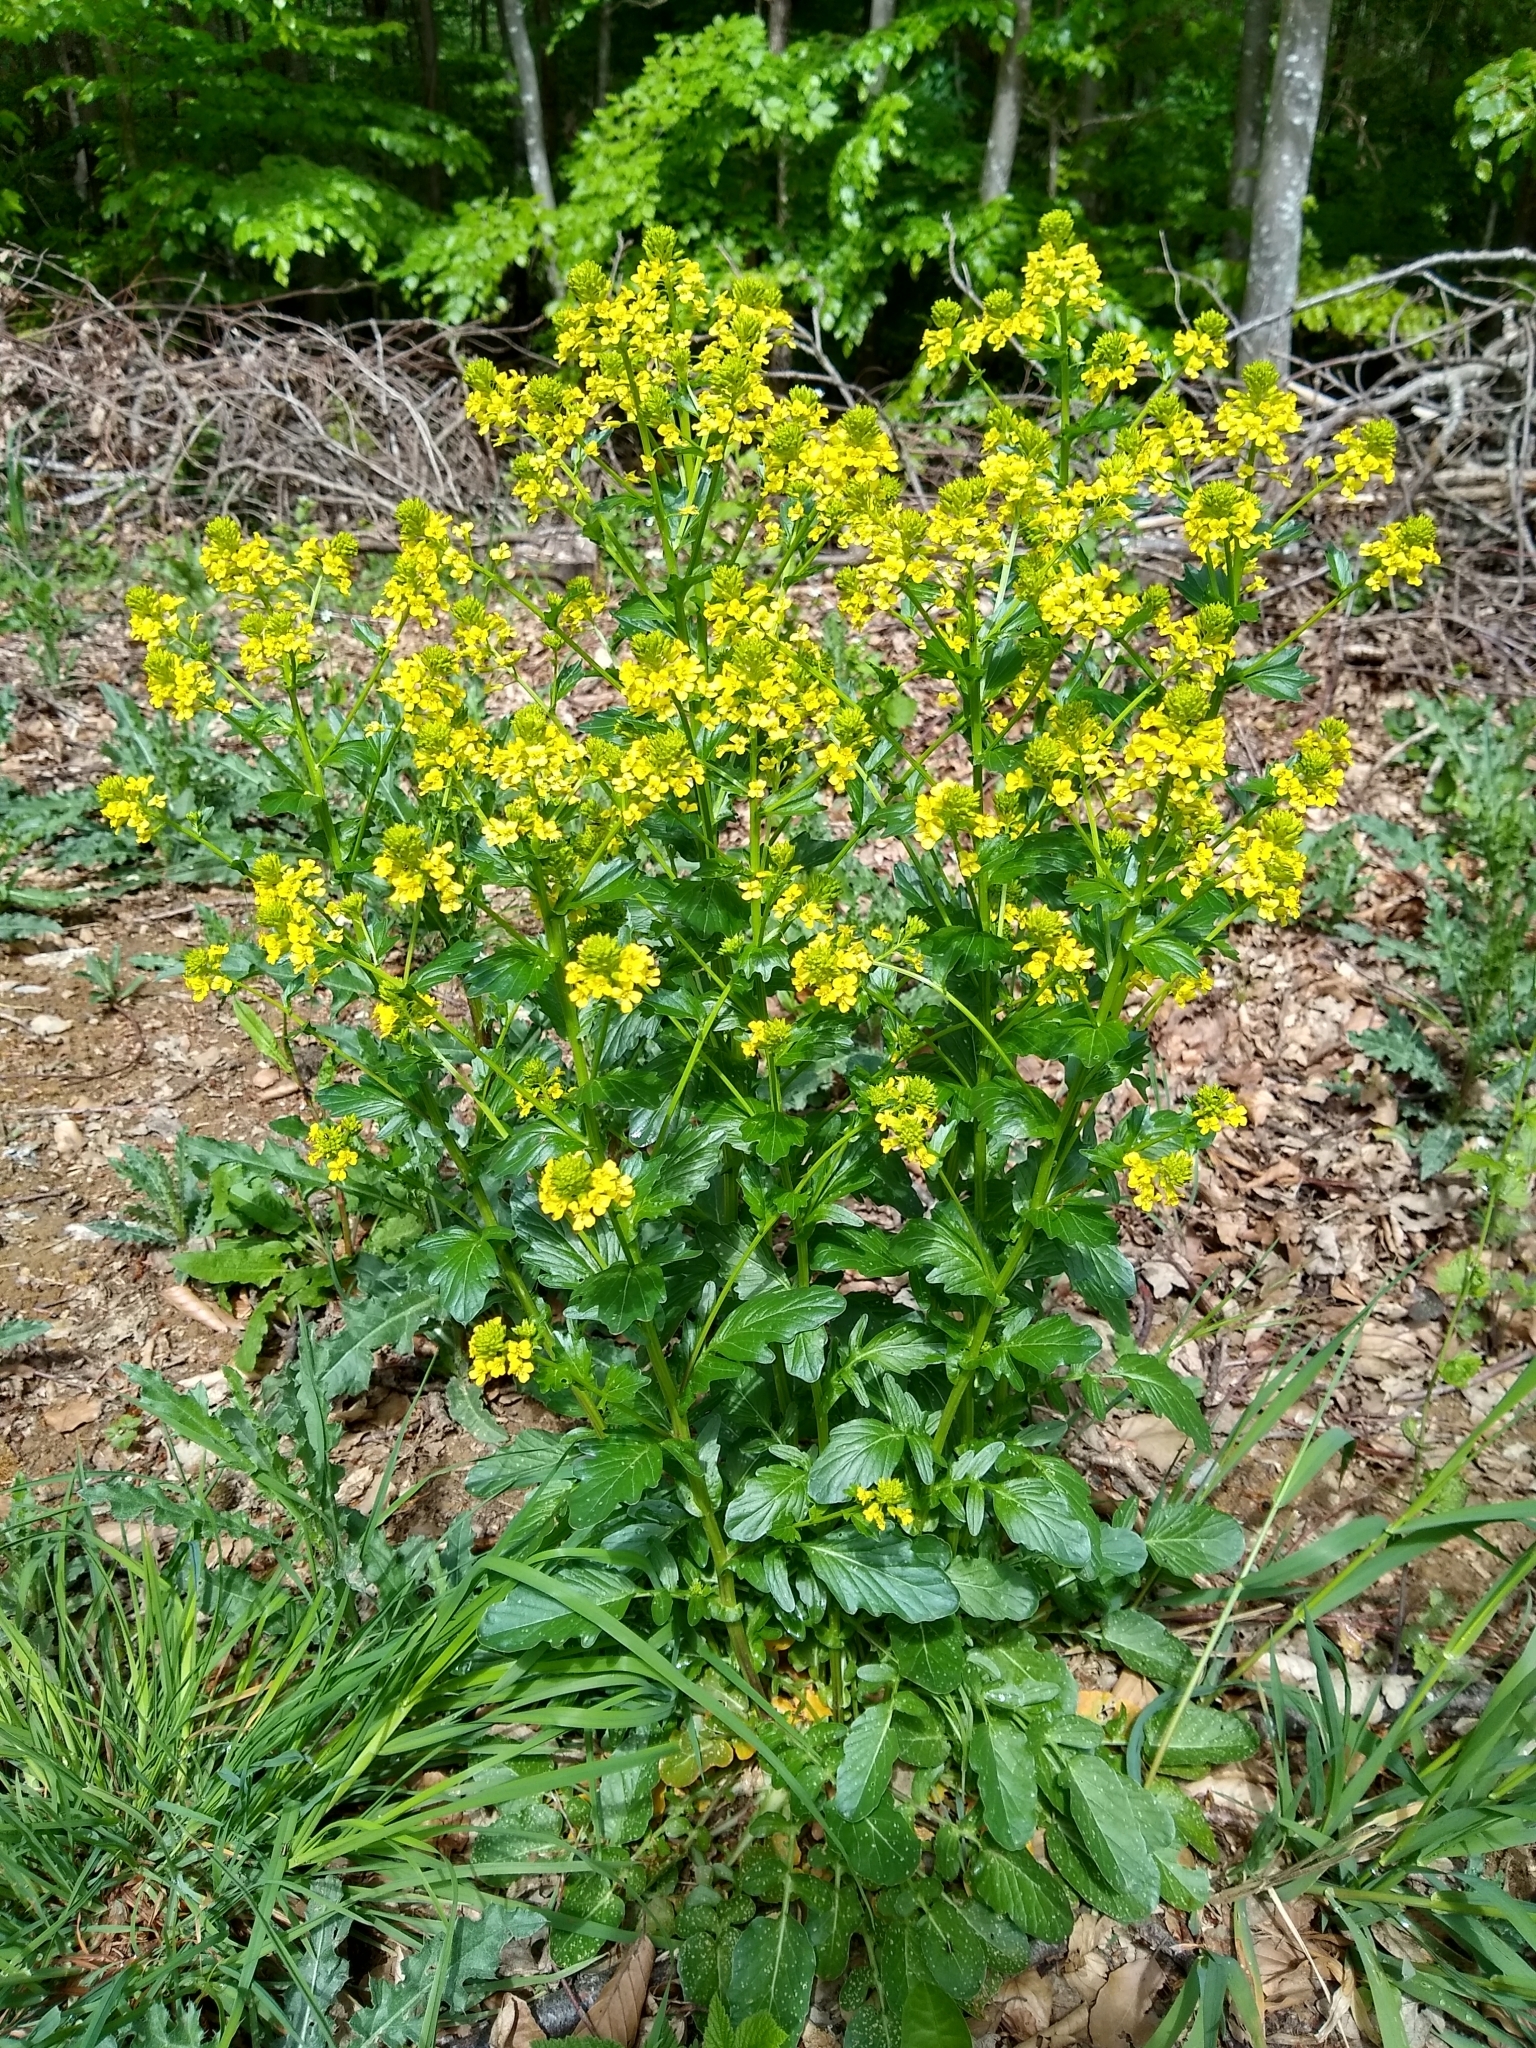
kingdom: Plantae
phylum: Tracheophyta
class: Magnoliopsida
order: Brassicales
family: Brassicaceae
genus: Barbarea
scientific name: Barbarea vulgaris
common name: Cressy-greens
